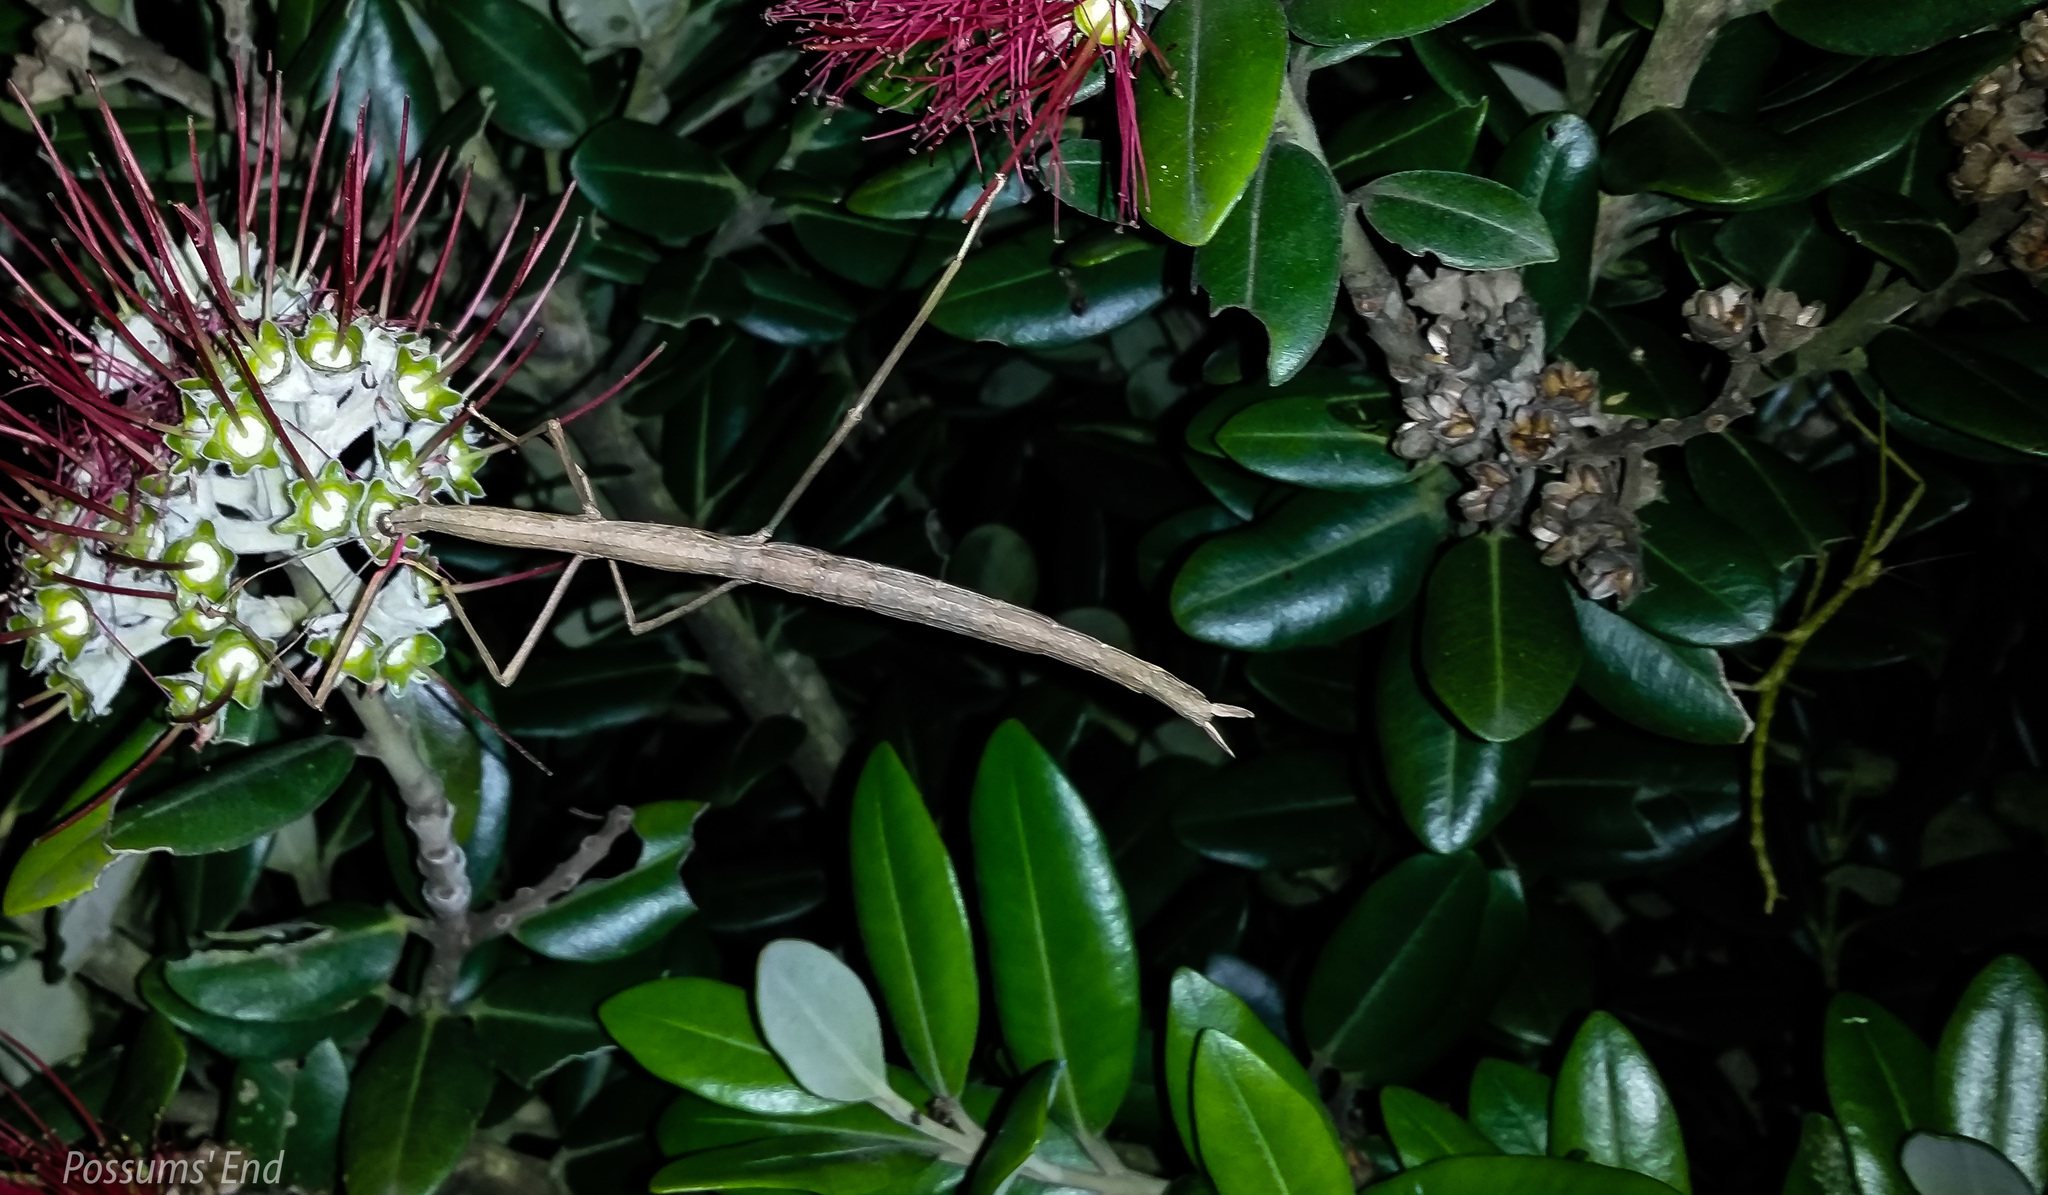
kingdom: Animalia
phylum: Arthropoda
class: Insecta
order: Phasmida
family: Phasmatidae
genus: Clitarchus
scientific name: Clitarchus hookeri
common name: Smooth stick insect
